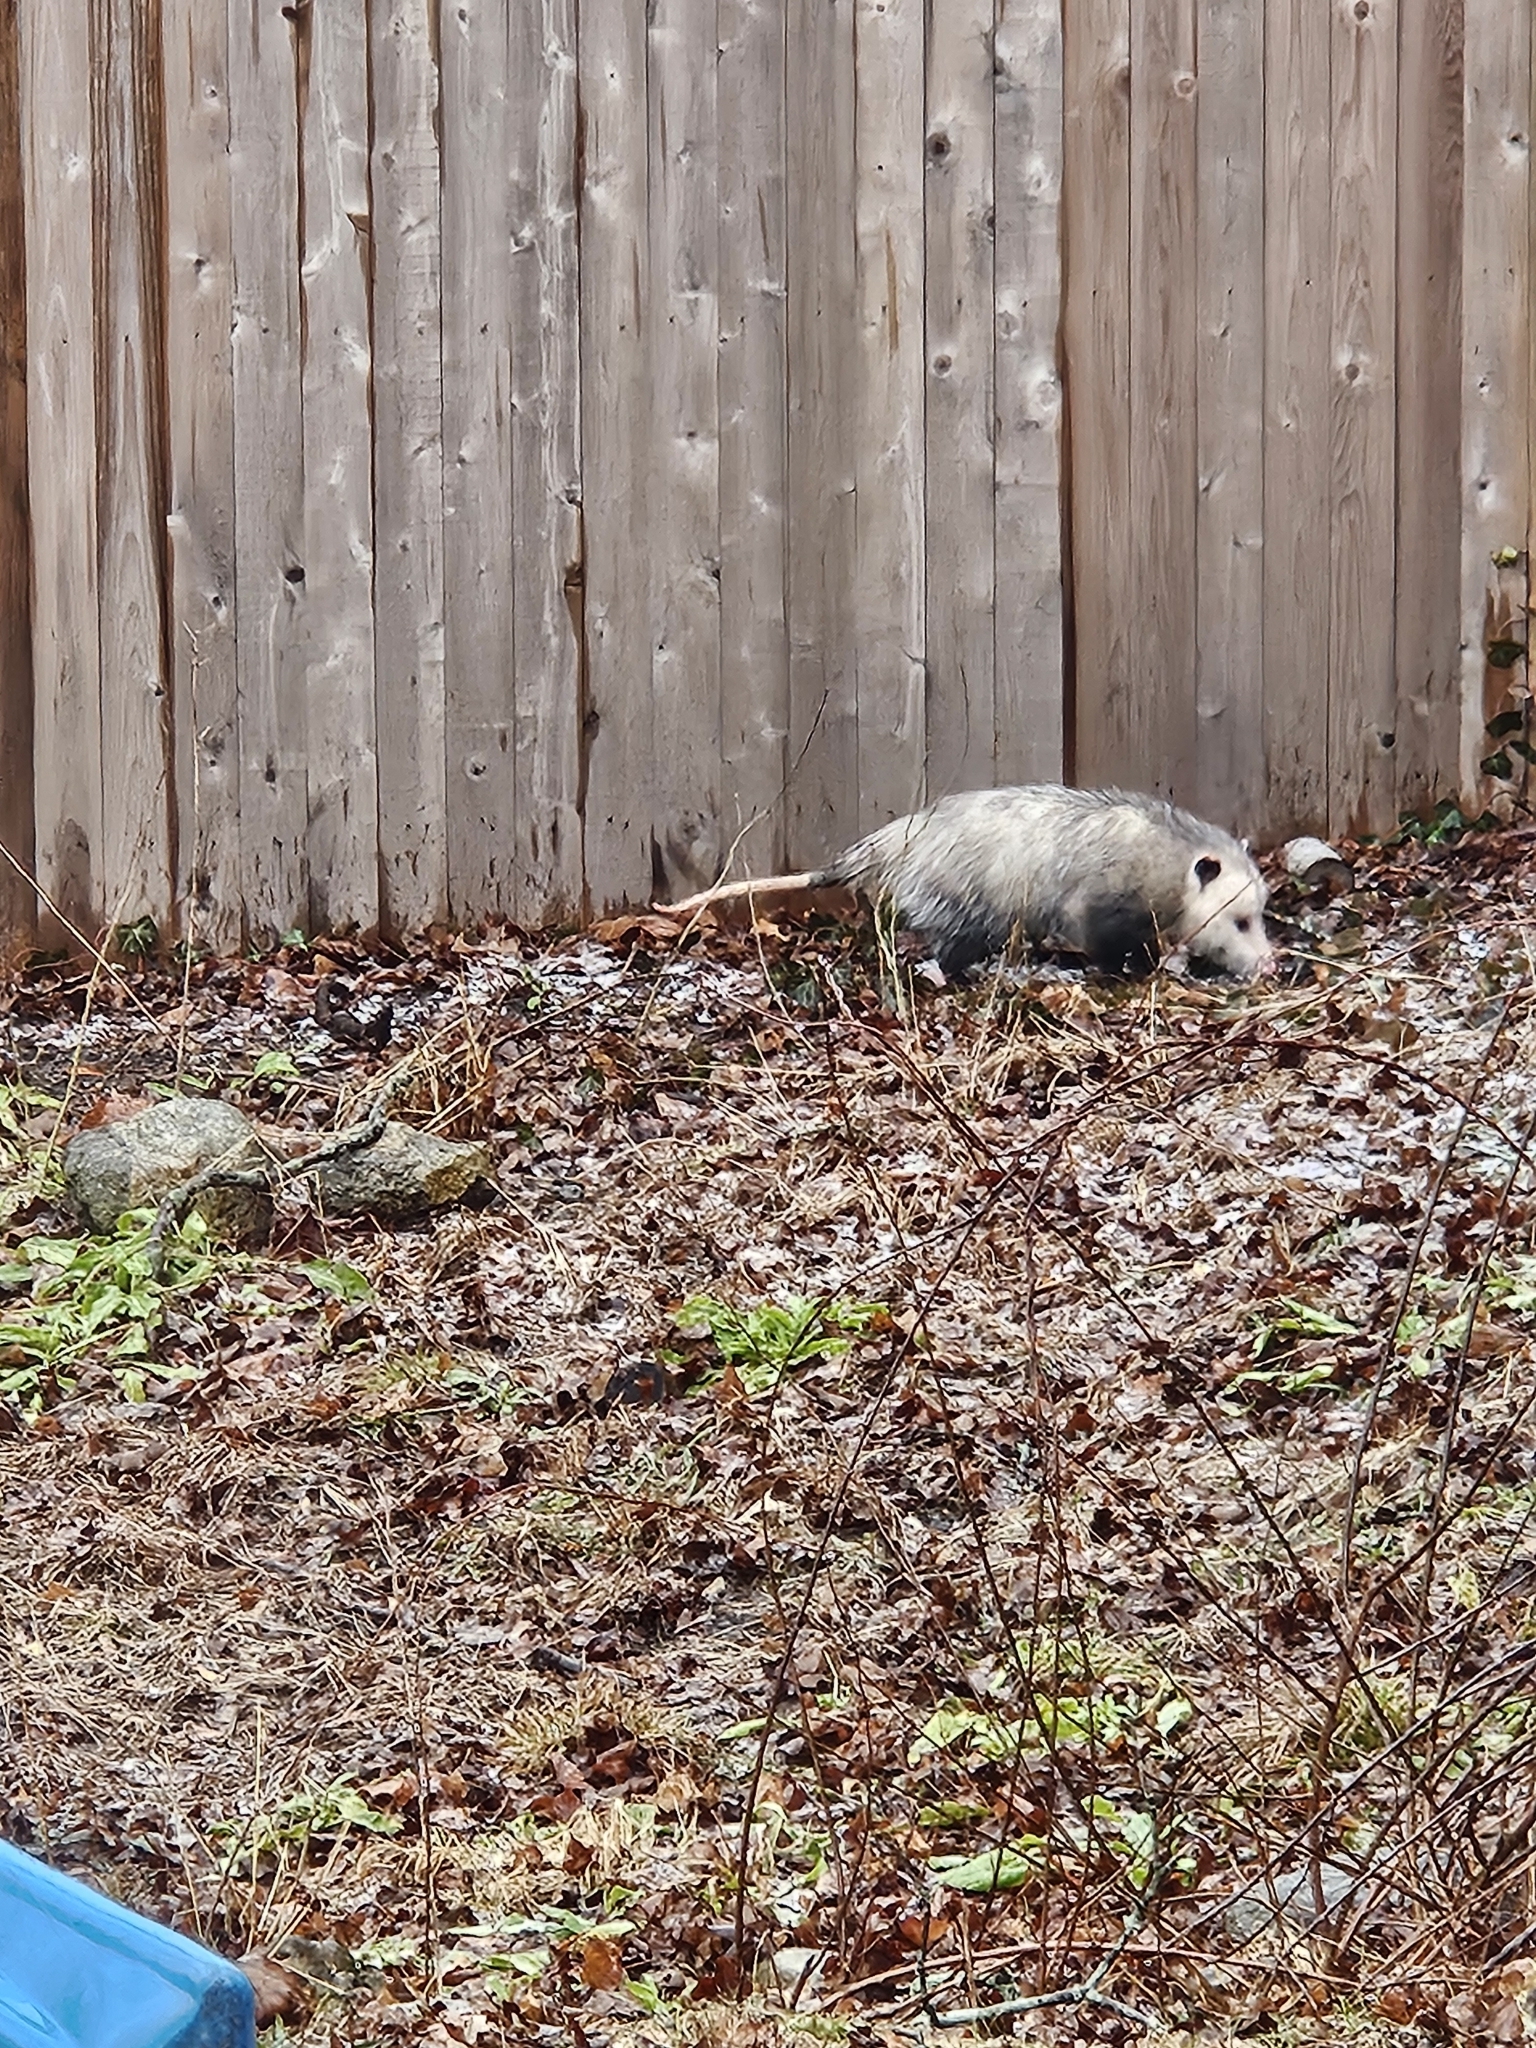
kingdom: Animalia
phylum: Chordata
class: Mammalia
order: Didelphimorphia
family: Didelphidae
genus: Didelphis
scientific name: Didelphis virginiana
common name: Virginia opossum
